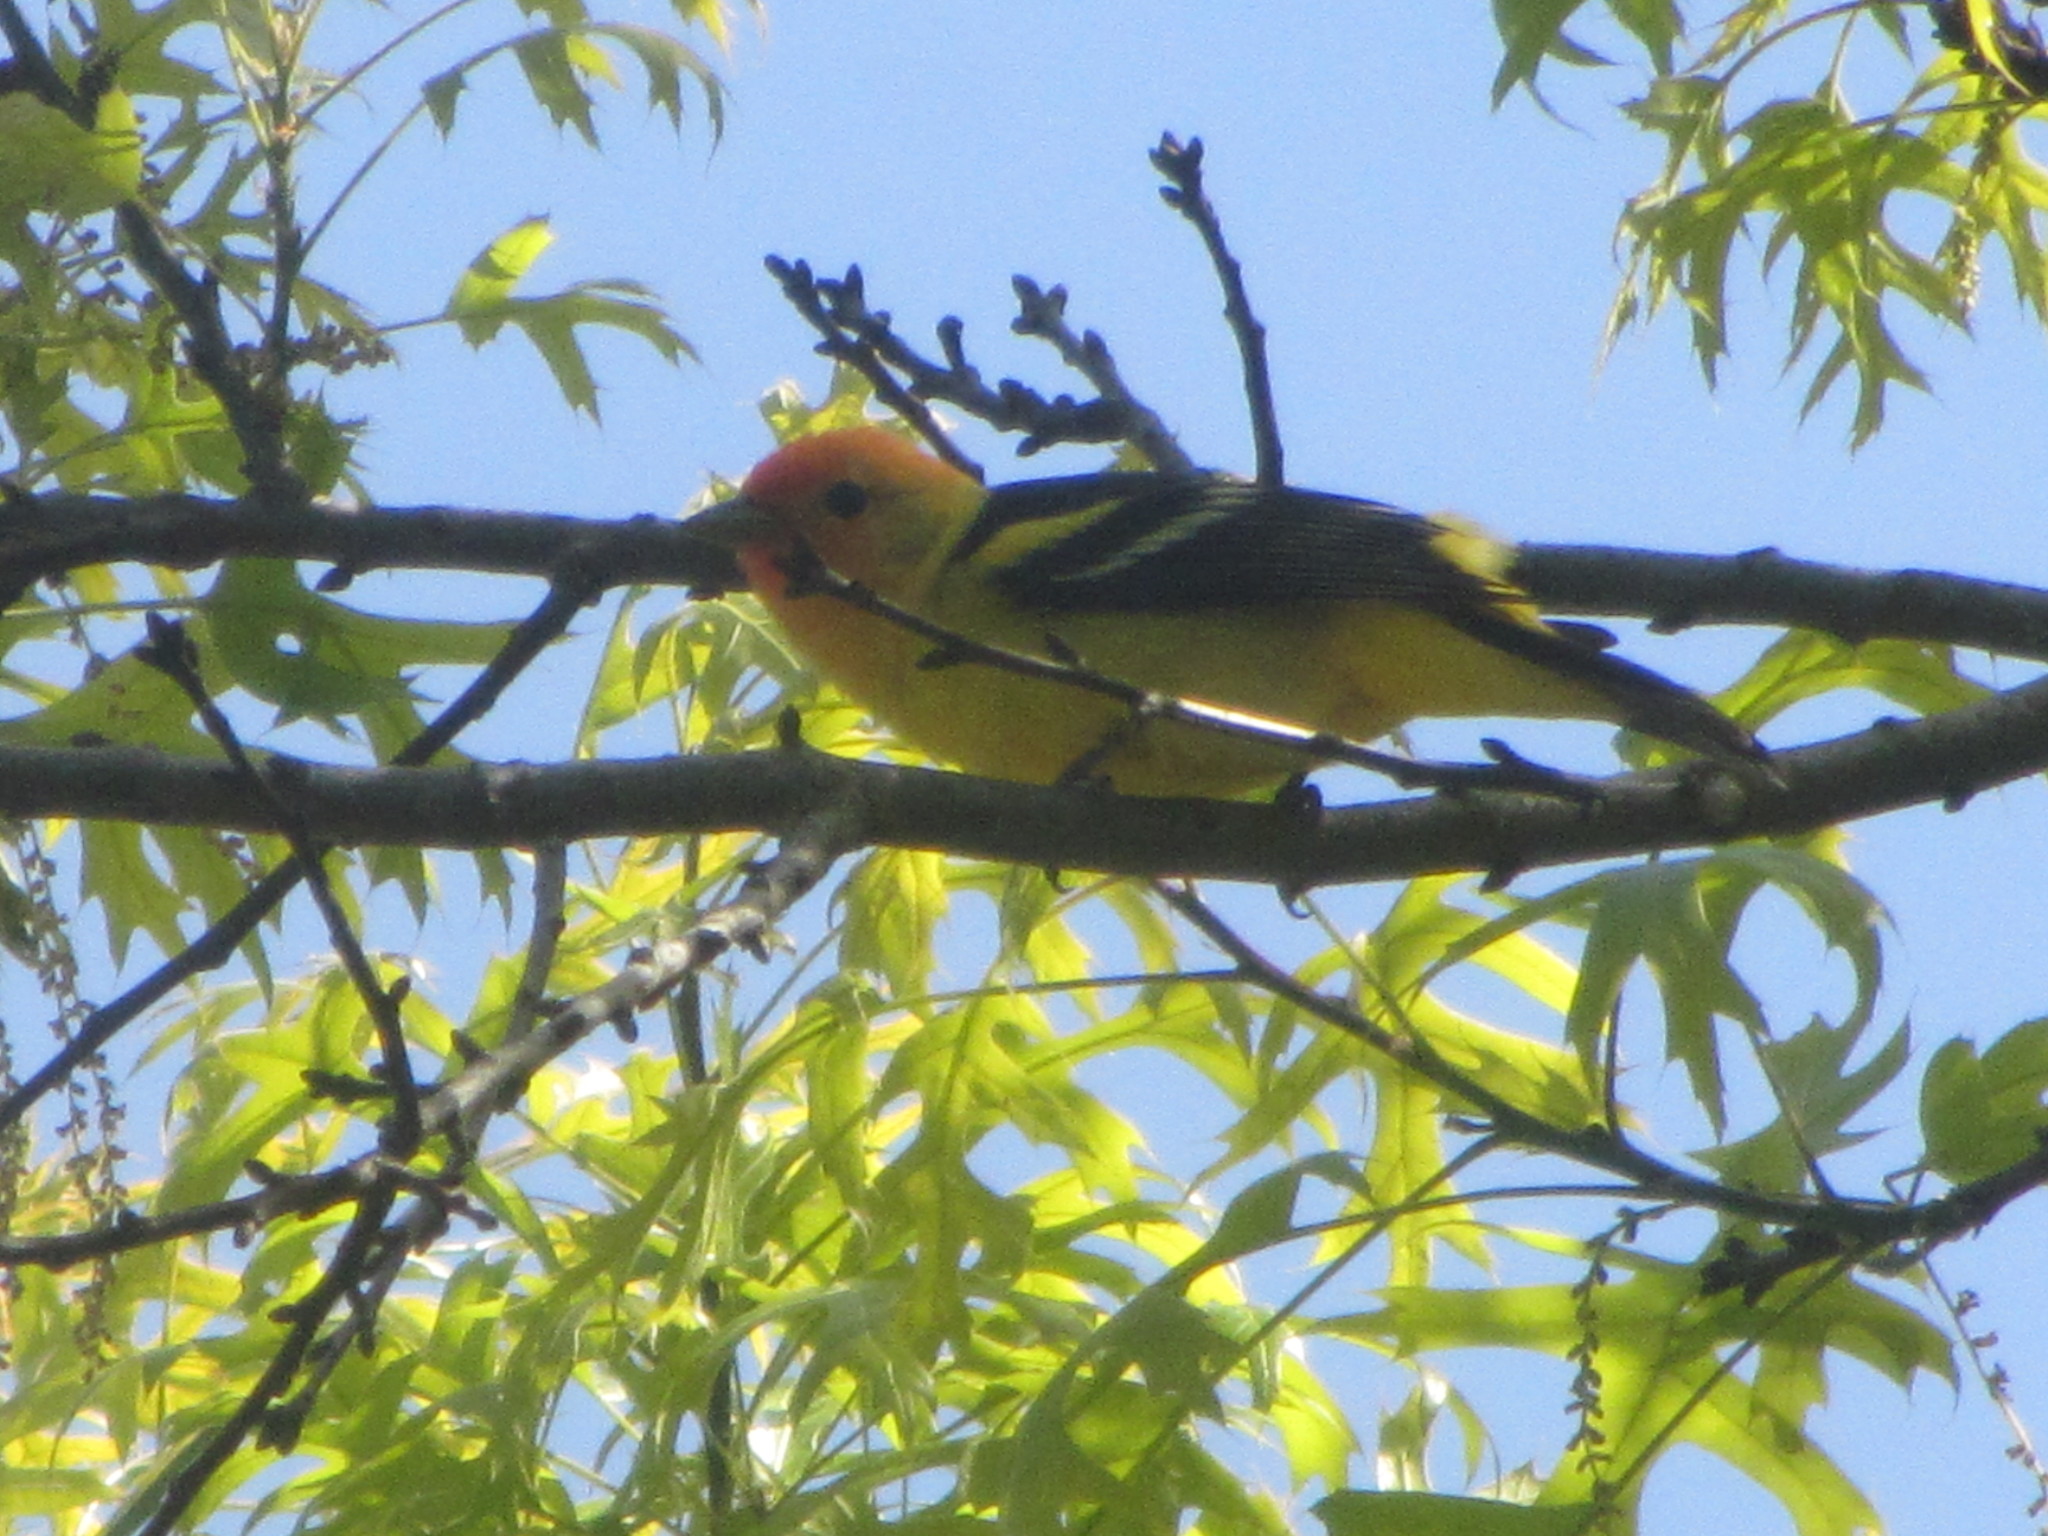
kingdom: Animalia
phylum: Chordata
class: Aves
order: Passeriformes
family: Cardinalidae
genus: Piranga
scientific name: Piranga ludoviciana
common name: Western tanager
